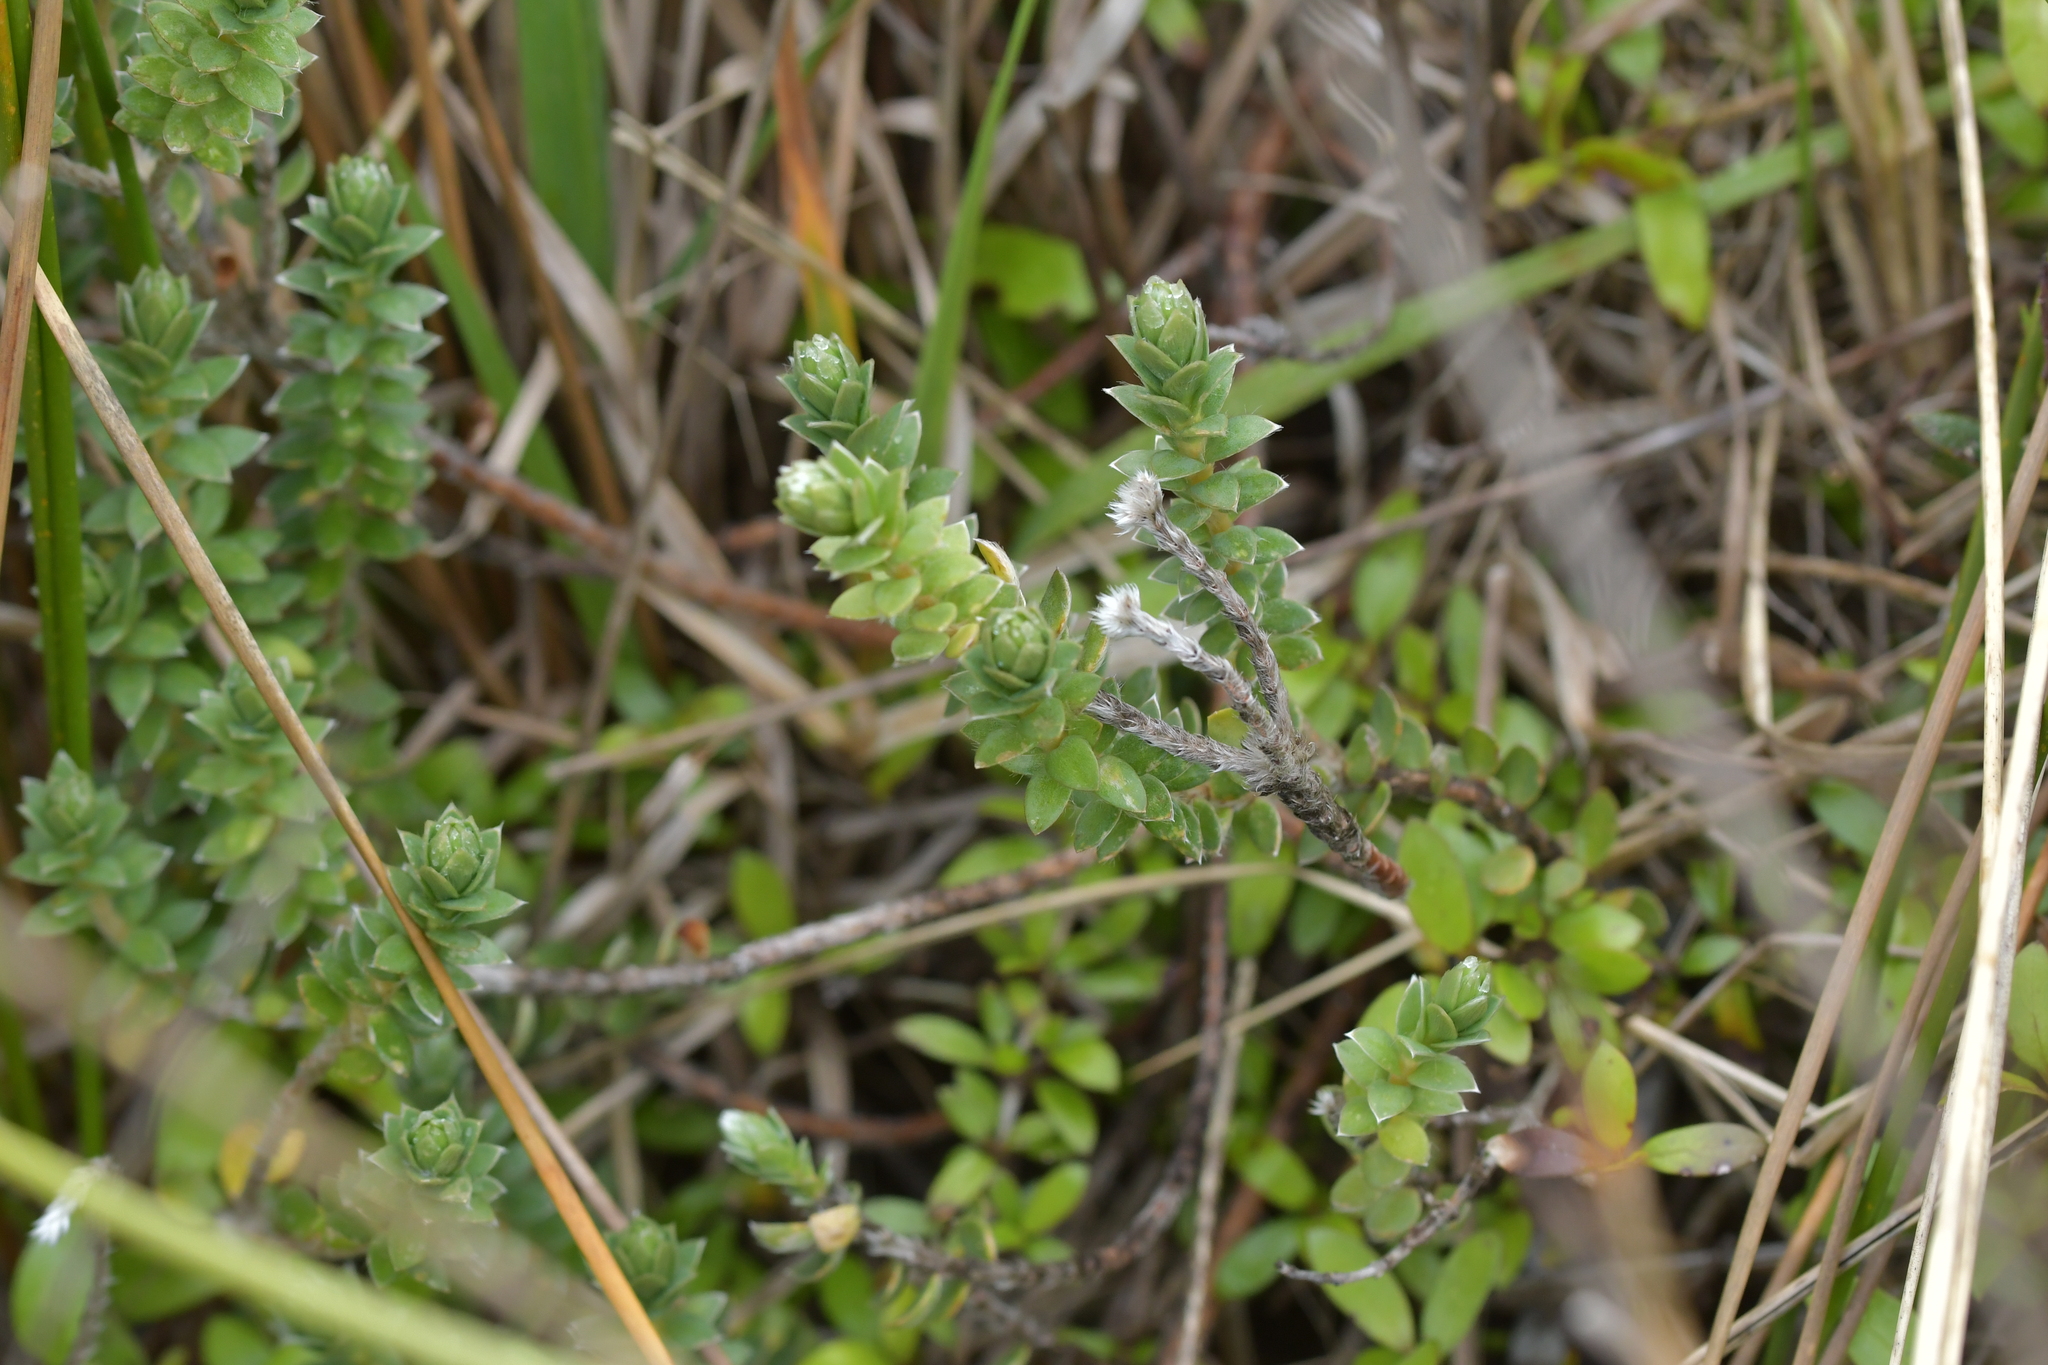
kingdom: Plantae
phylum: Tracheophyta
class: Magnoliopsida
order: Malvales
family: Thymelaeaceae
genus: Pimelea
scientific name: Pimelea villosa
